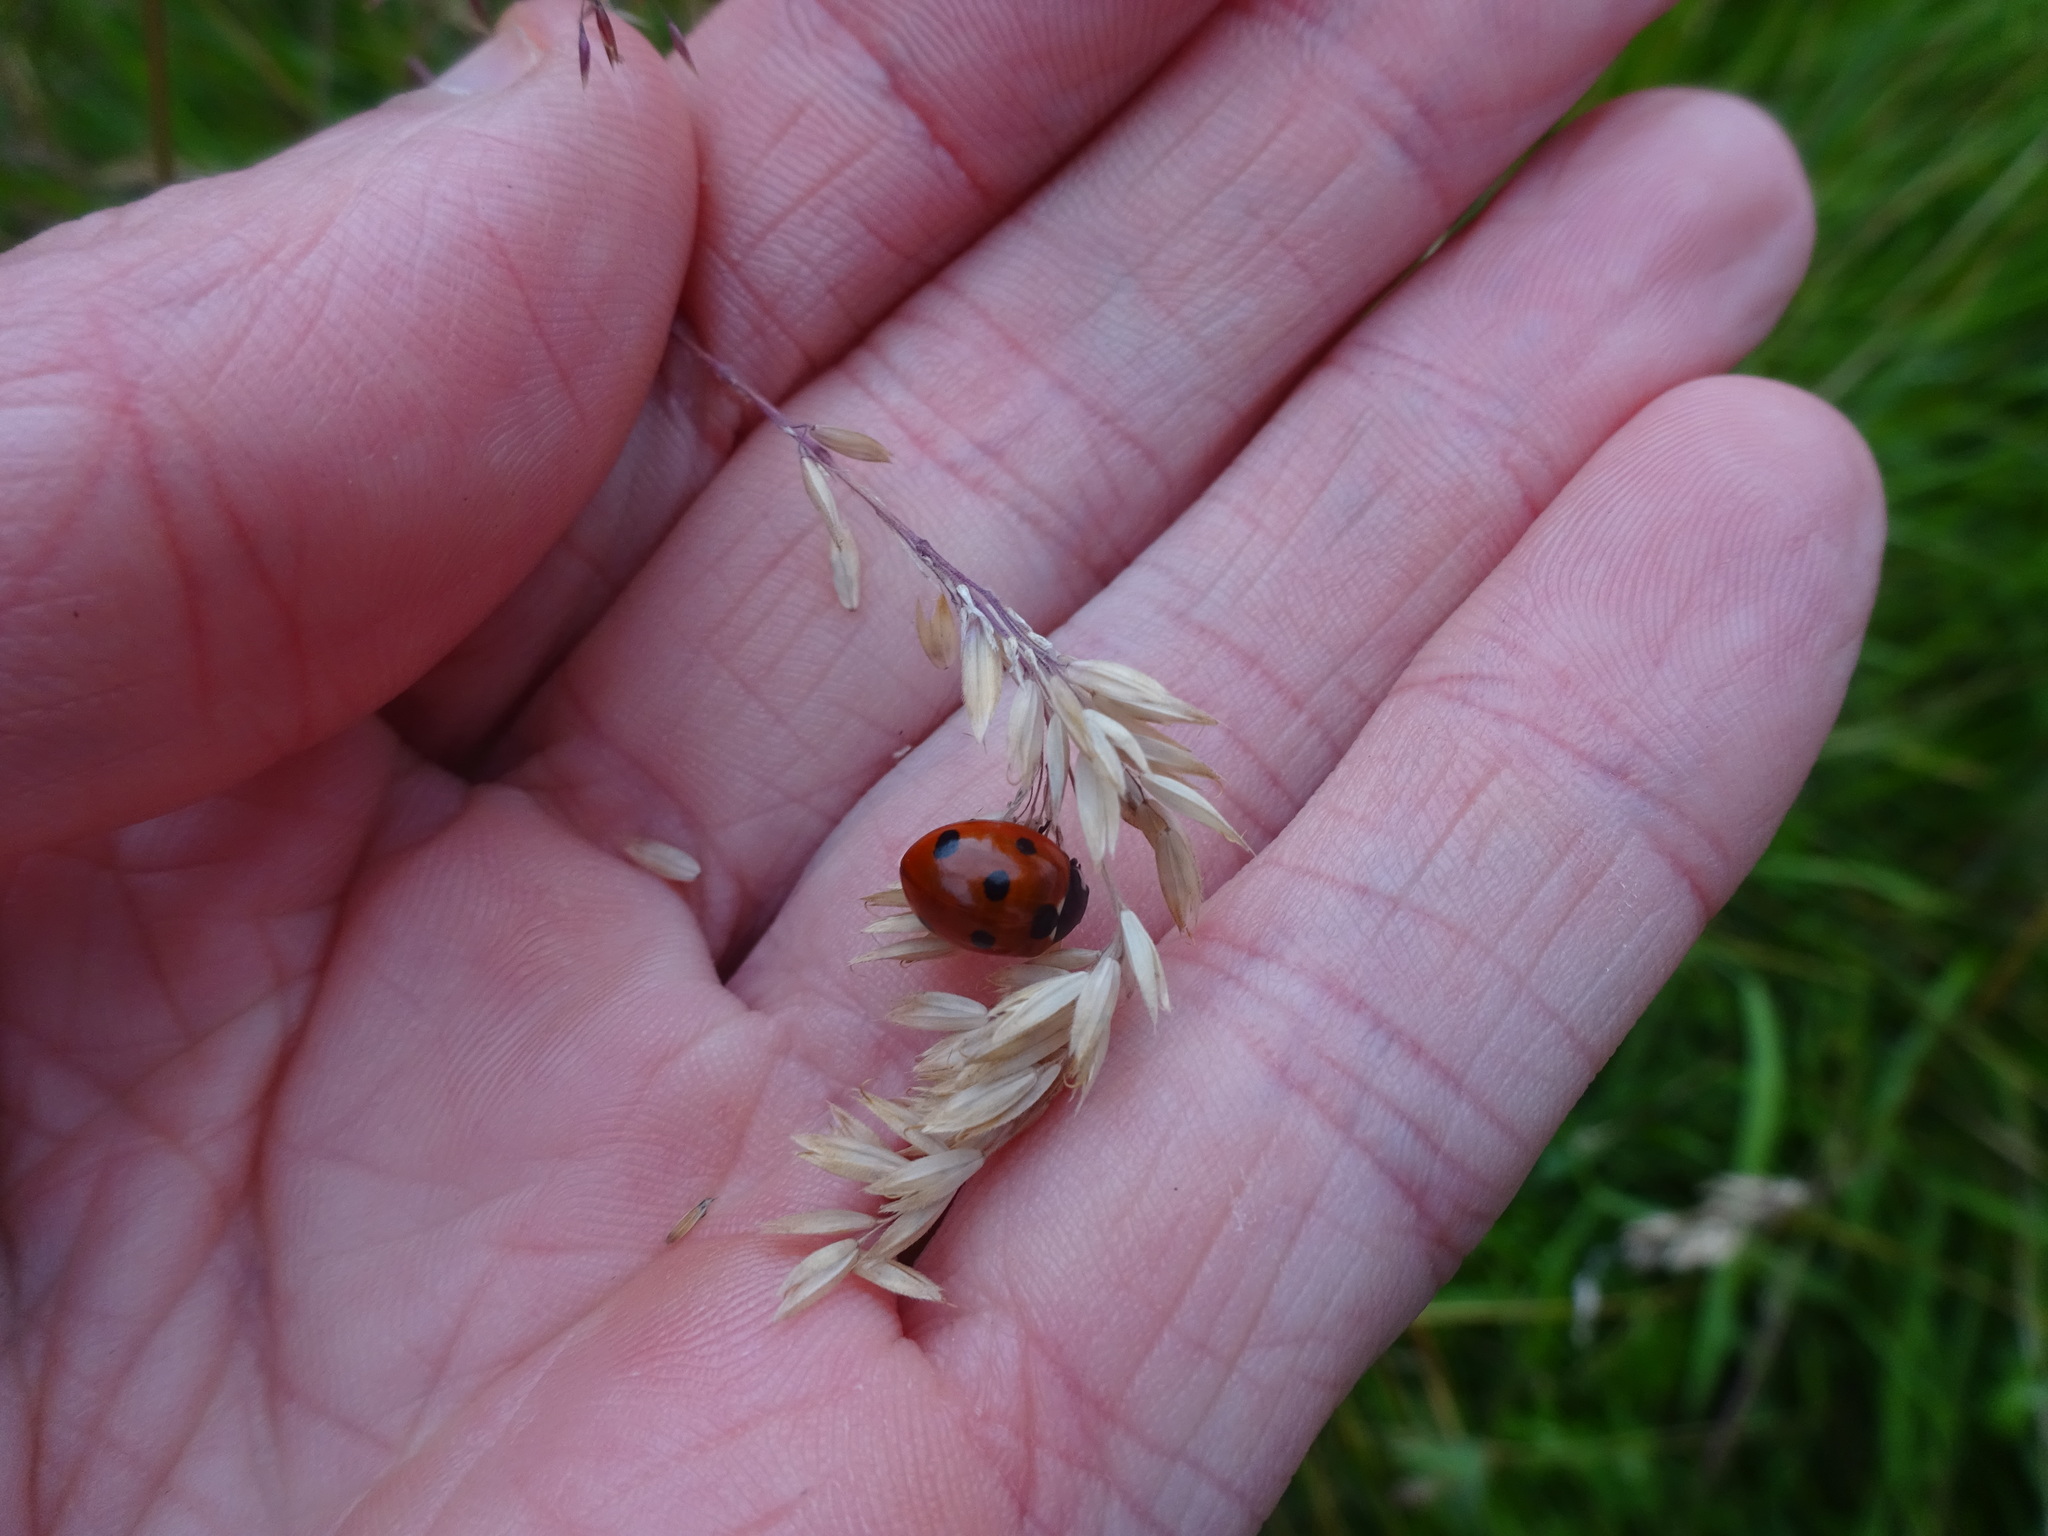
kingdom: Animalia
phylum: Arthropoda
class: Insecta
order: Coleoptera
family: Coccinellidae
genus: Coccinella
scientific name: Coccinella septempunctata
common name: Sevenspotted lady beetle
